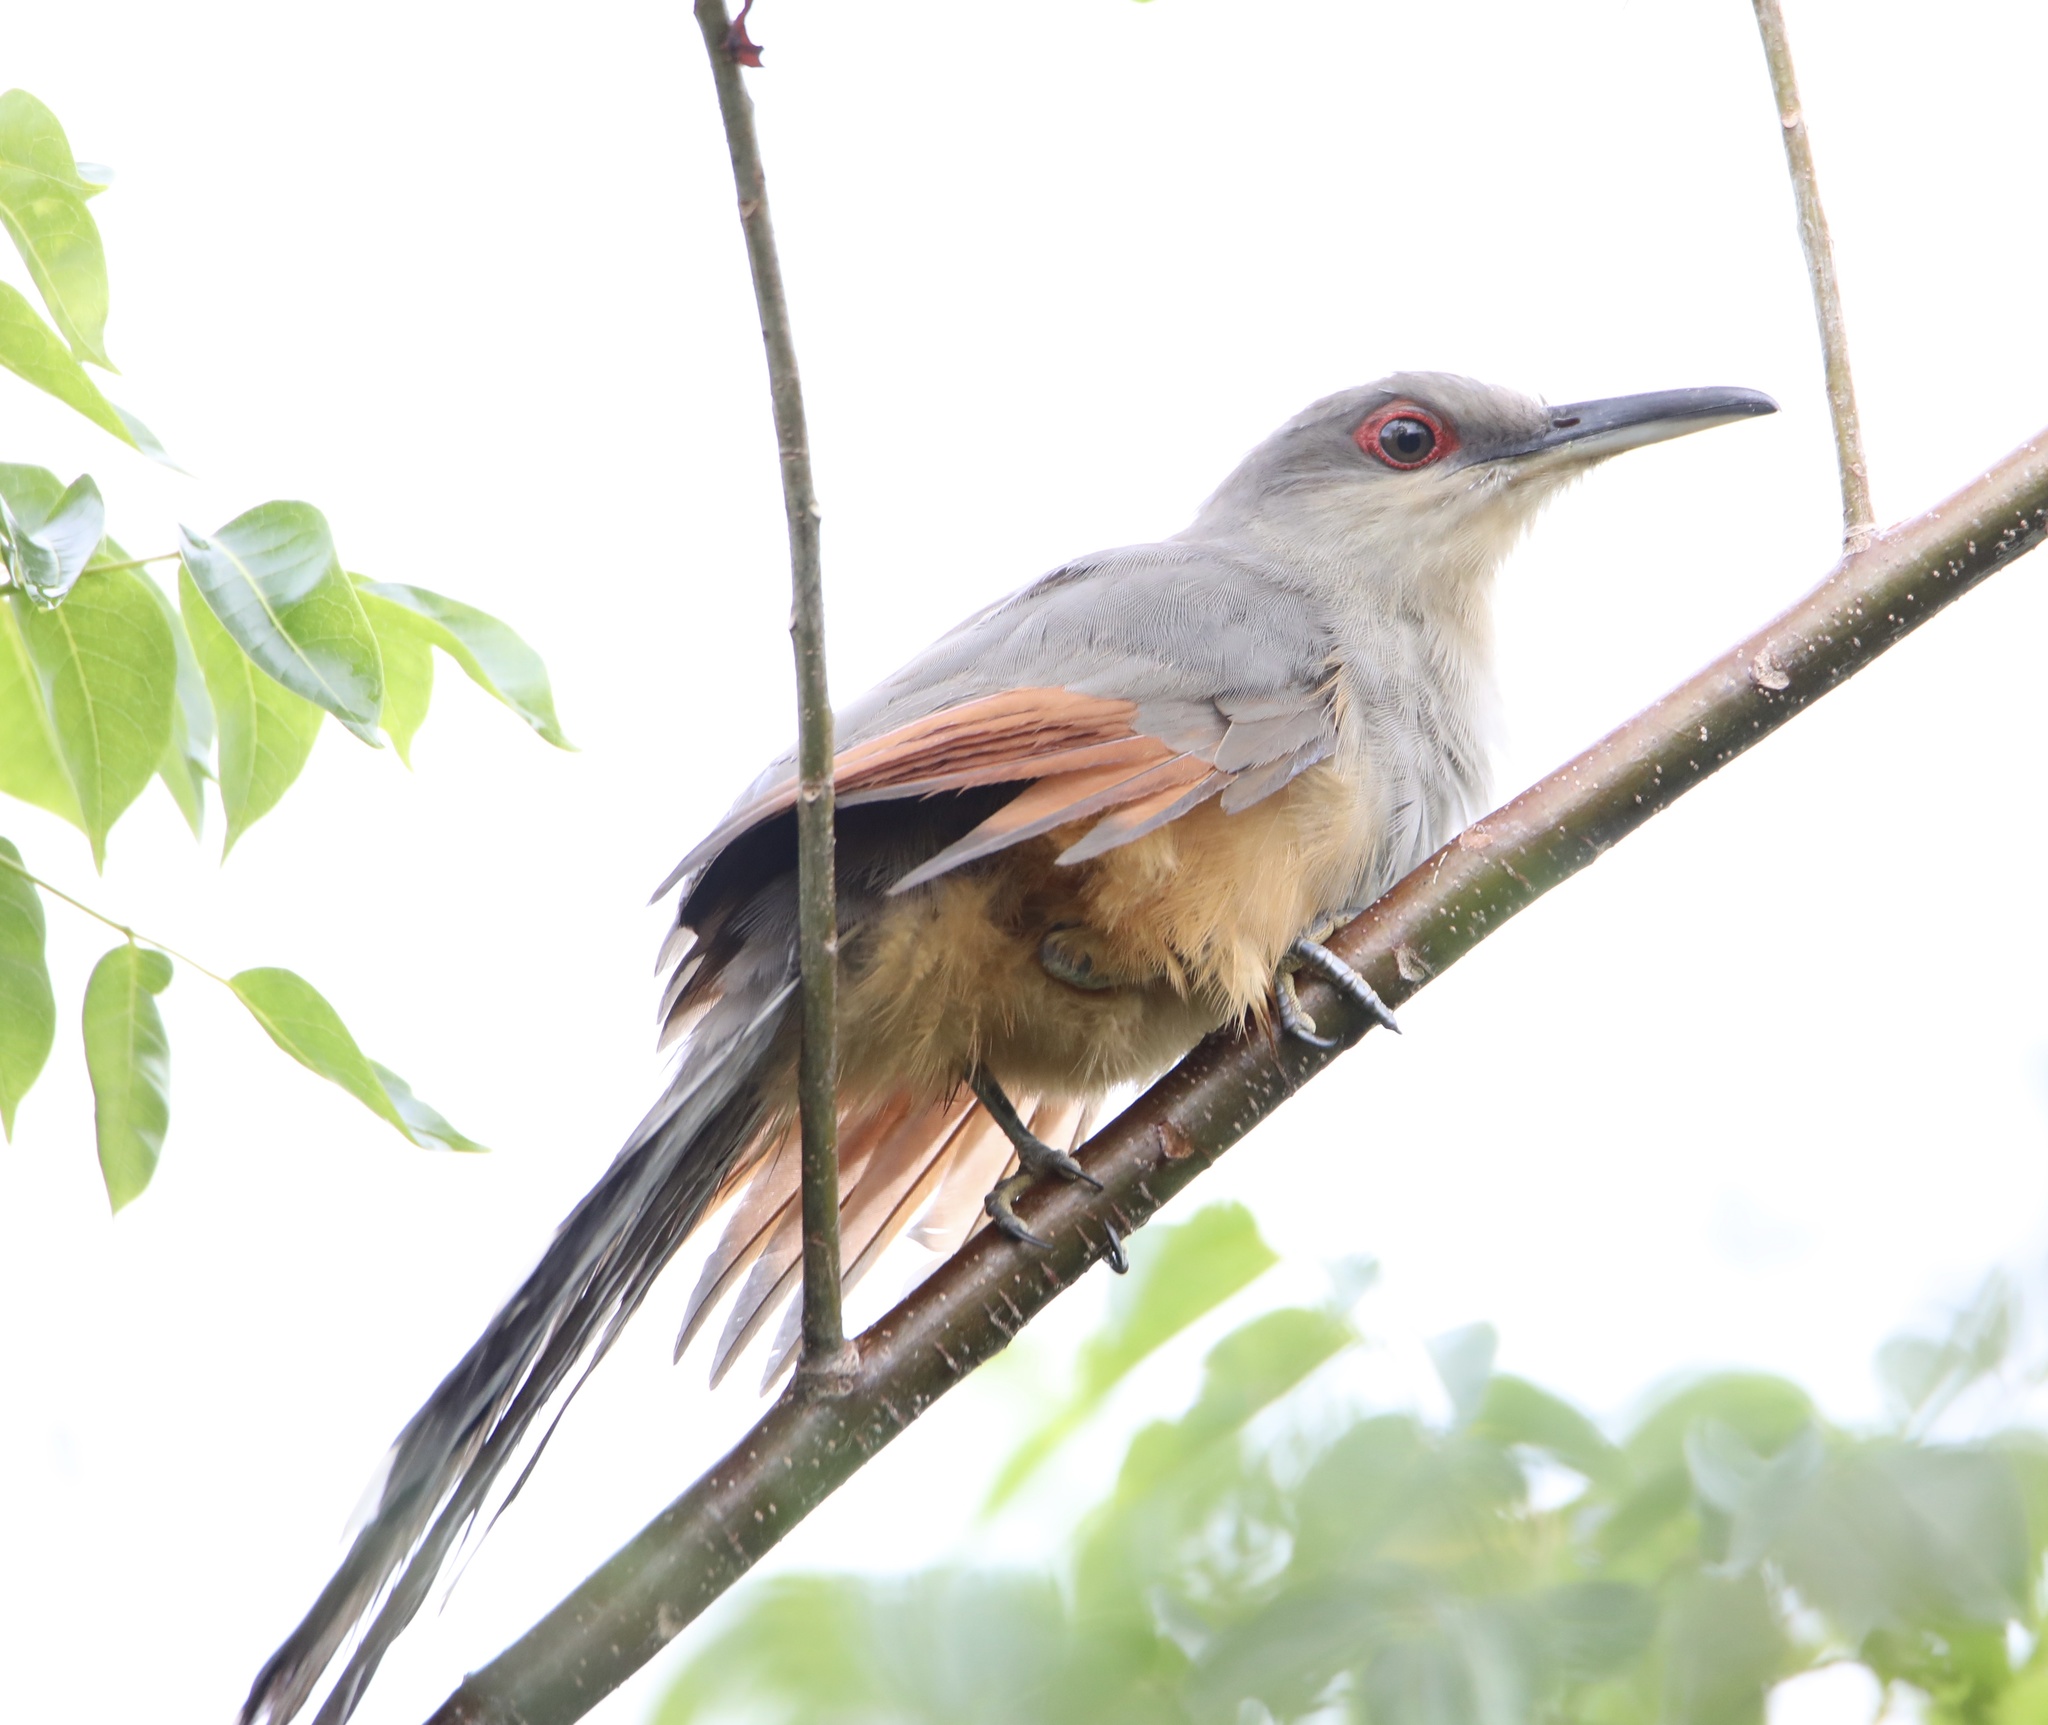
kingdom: Animalia
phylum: Chordata
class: Aves
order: Cuculiformes
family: Cuculidae
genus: Saurothera
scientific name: Saurothera longirostris
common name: Hispaniolan lizard-cuckoo
